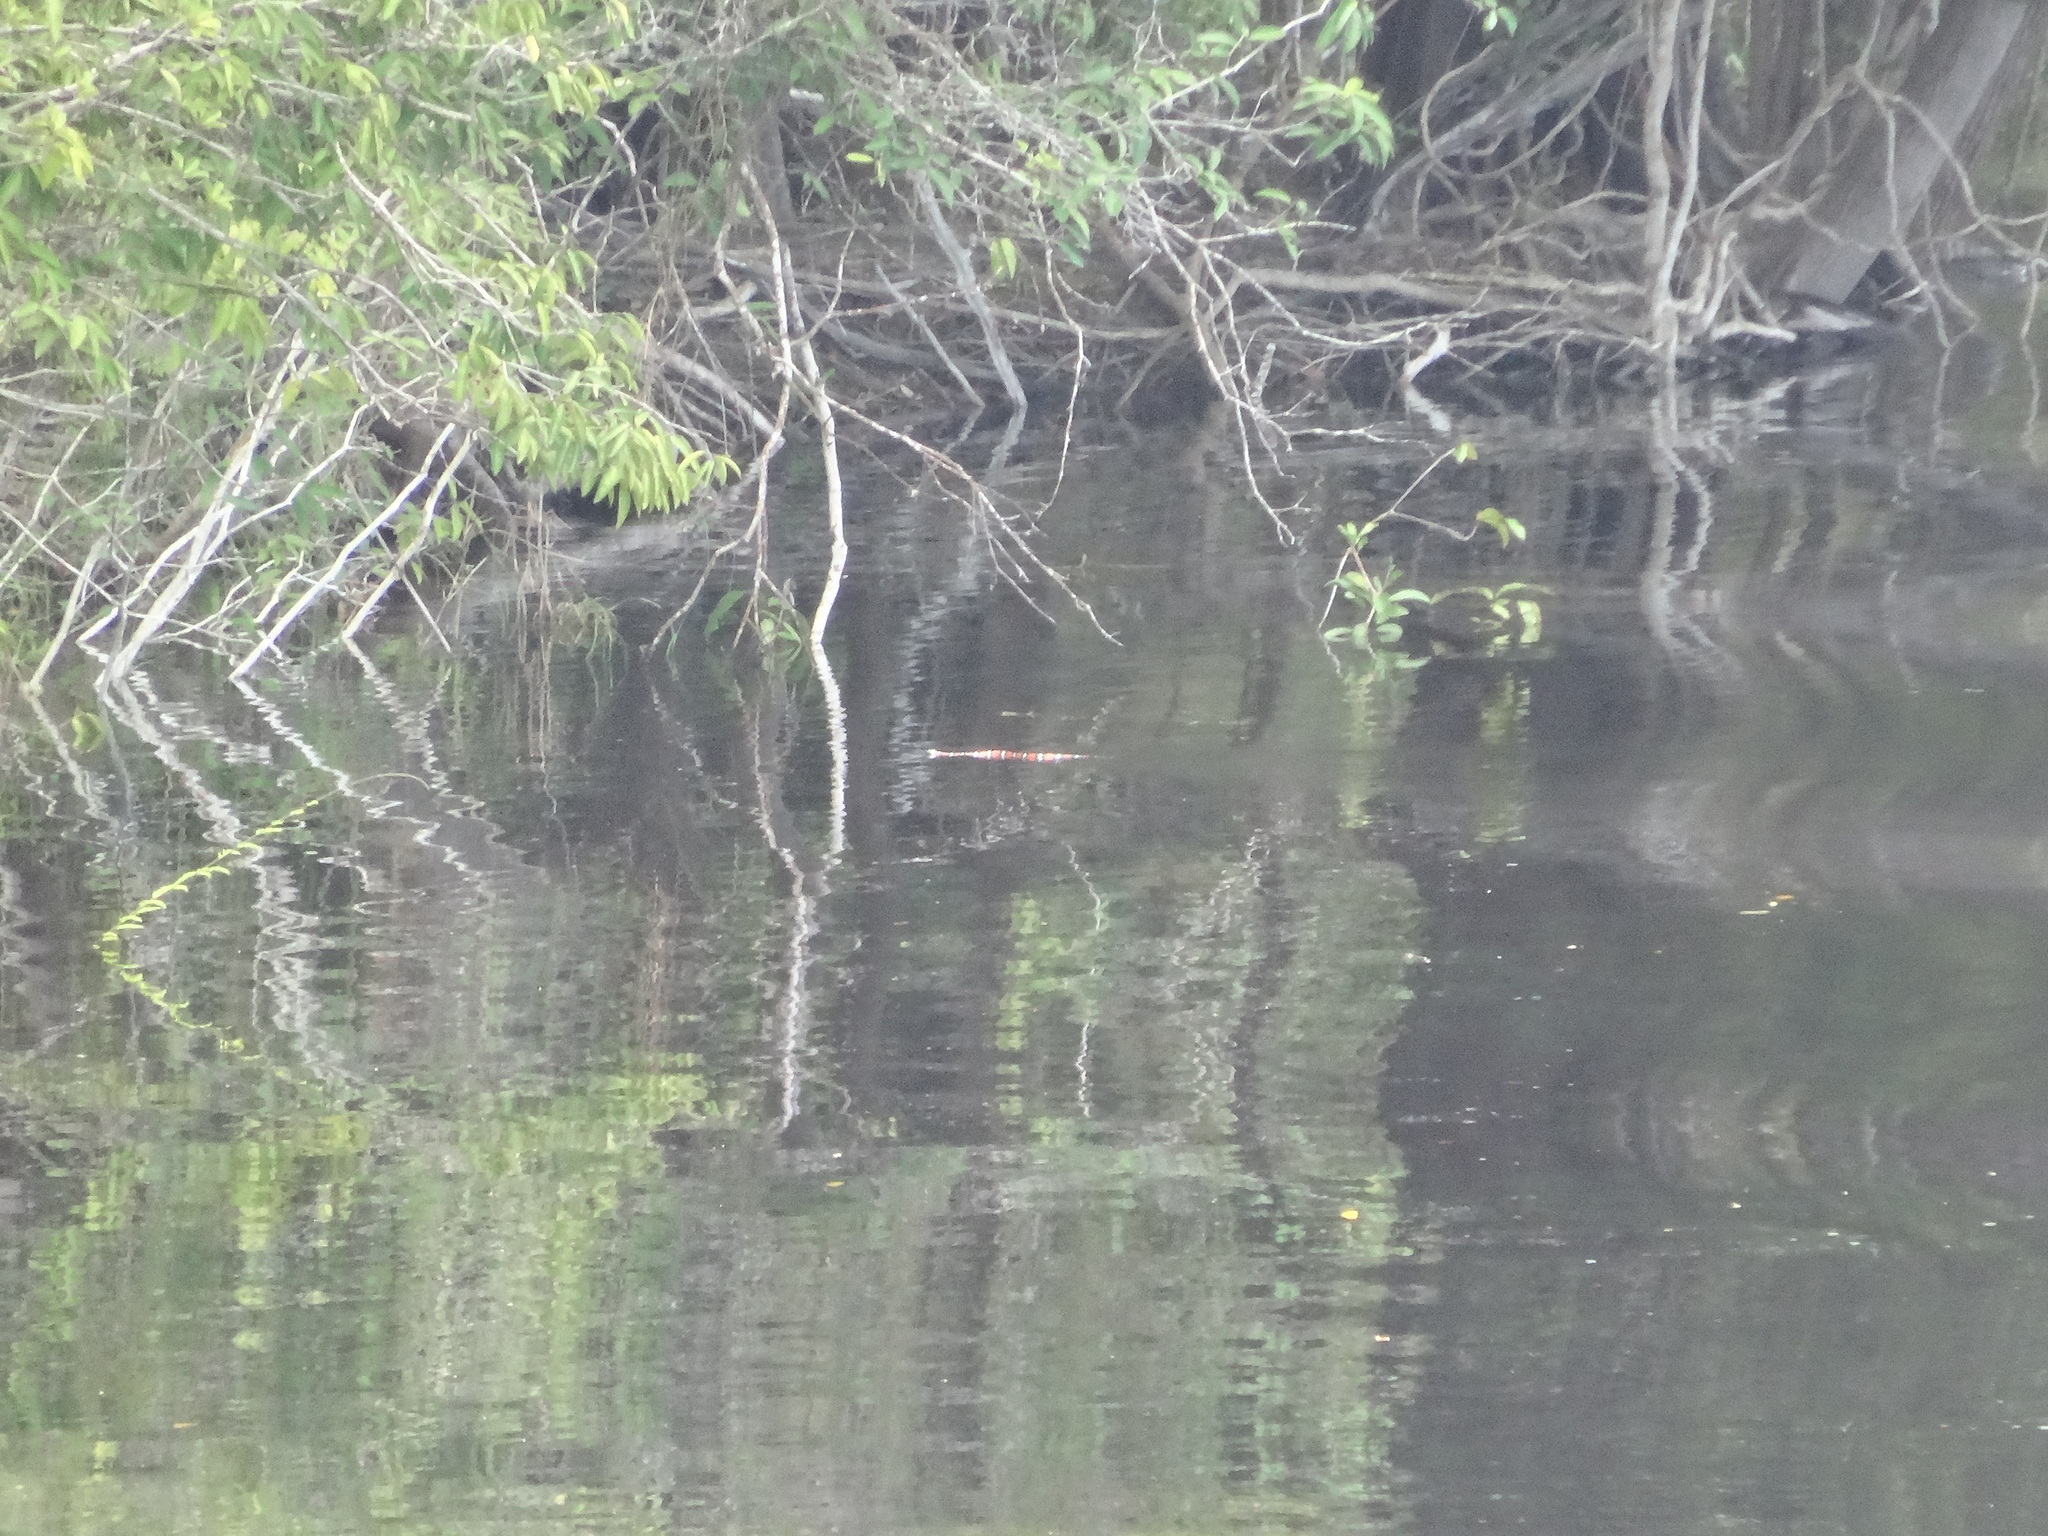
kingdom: Animalia
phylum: Chordata
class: Squamata
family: Colubridae
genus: Erythrolamprus
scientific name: Erythrolamprus aesculapii
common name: Aesculapian false coral snake
